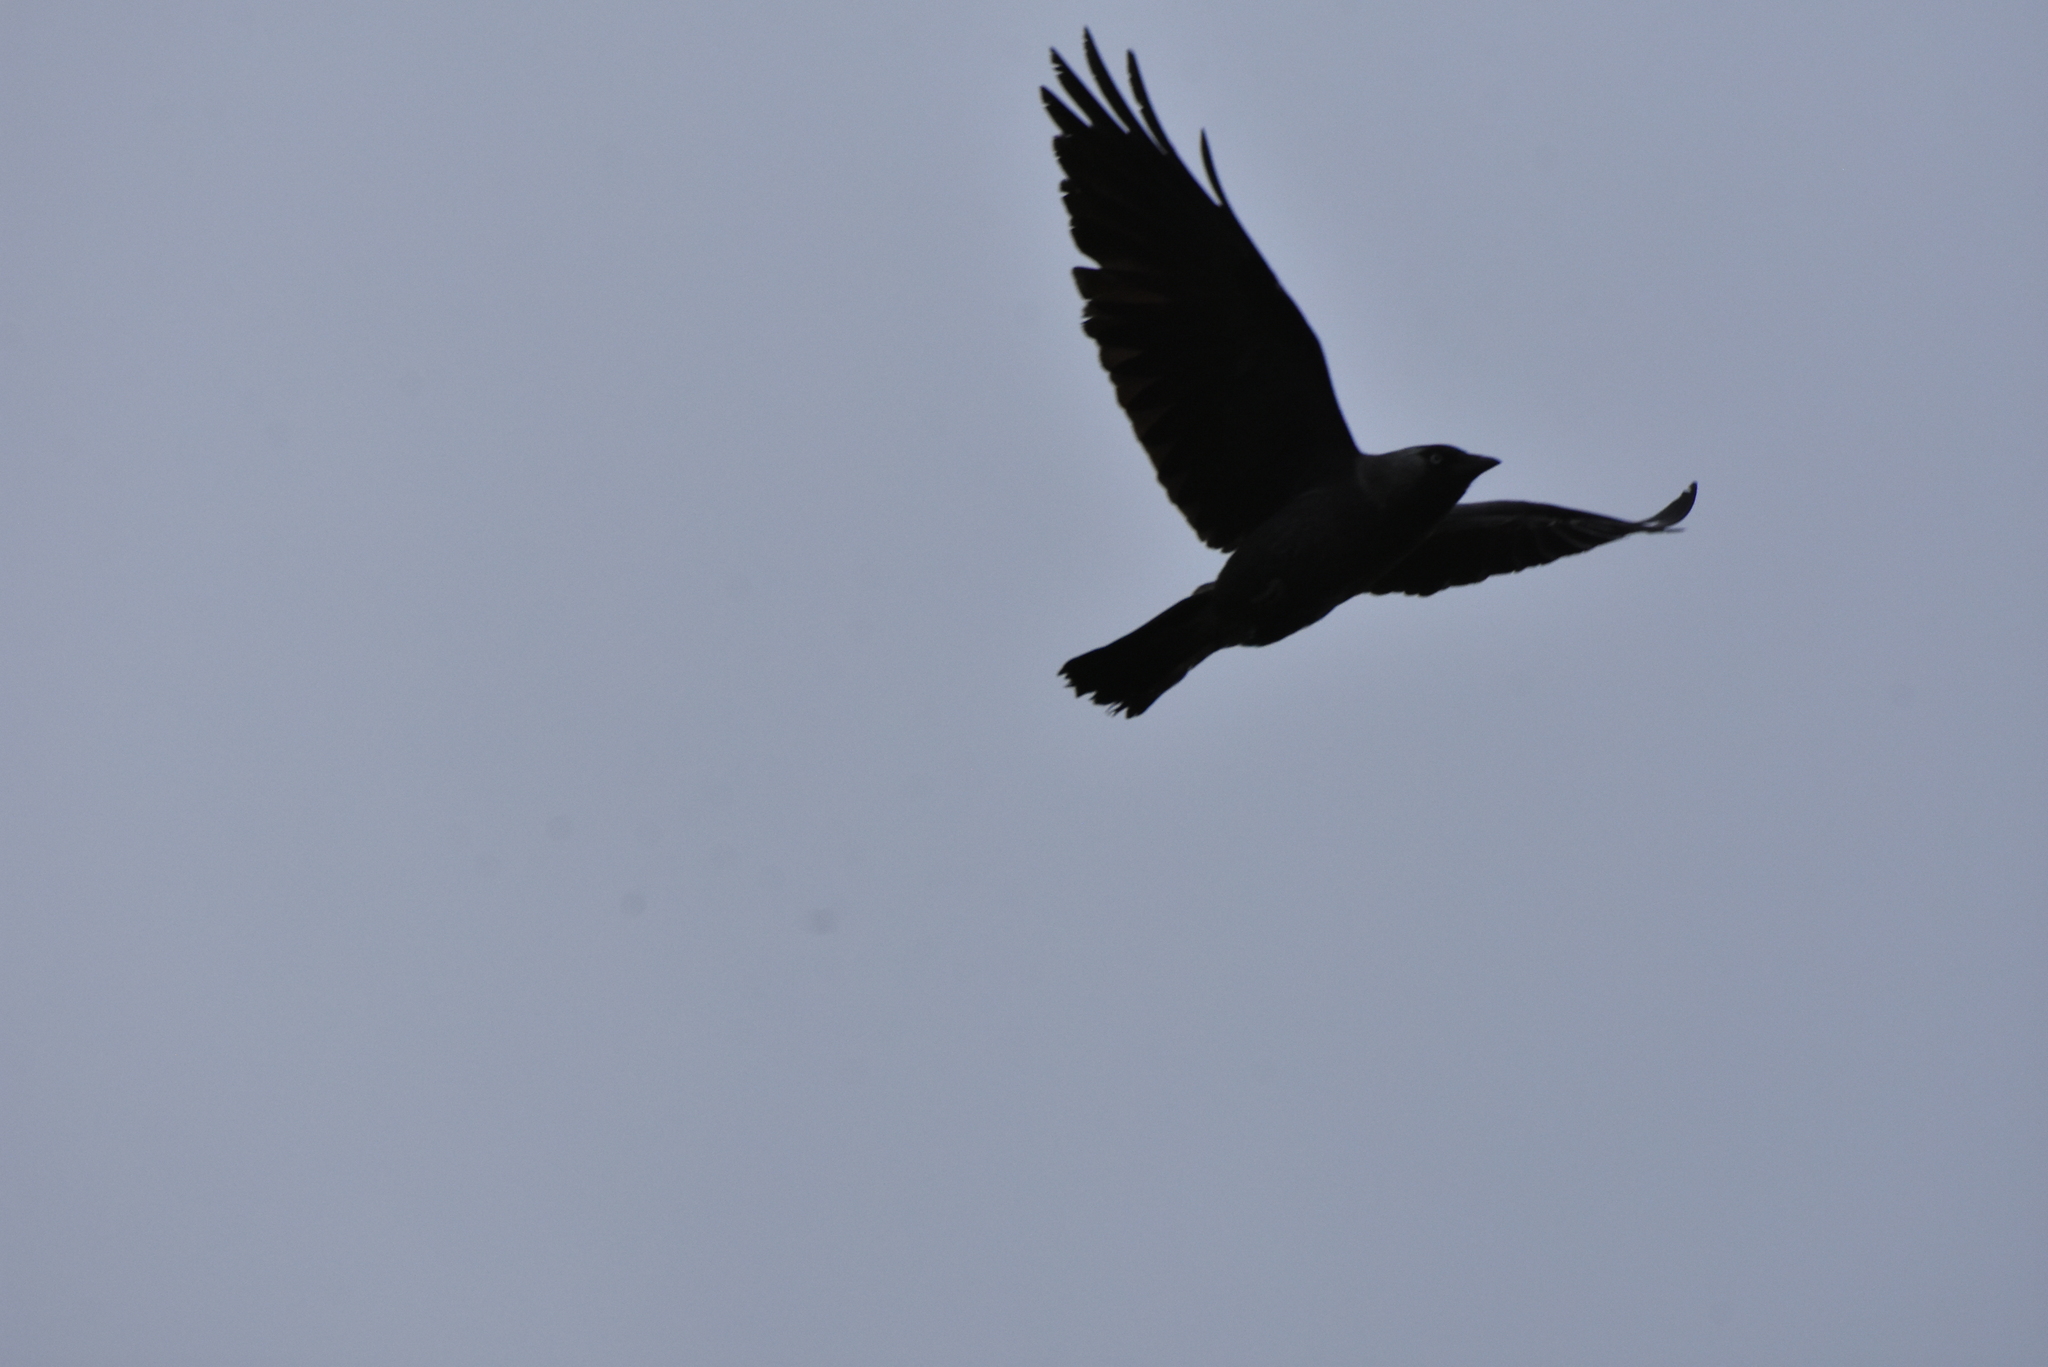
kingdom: Animalia
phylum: Chordata
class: Aves
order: Passeriformes
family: Corvidae
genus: Coloeus
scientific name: Coloeus monedula
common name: Western jackdaw
